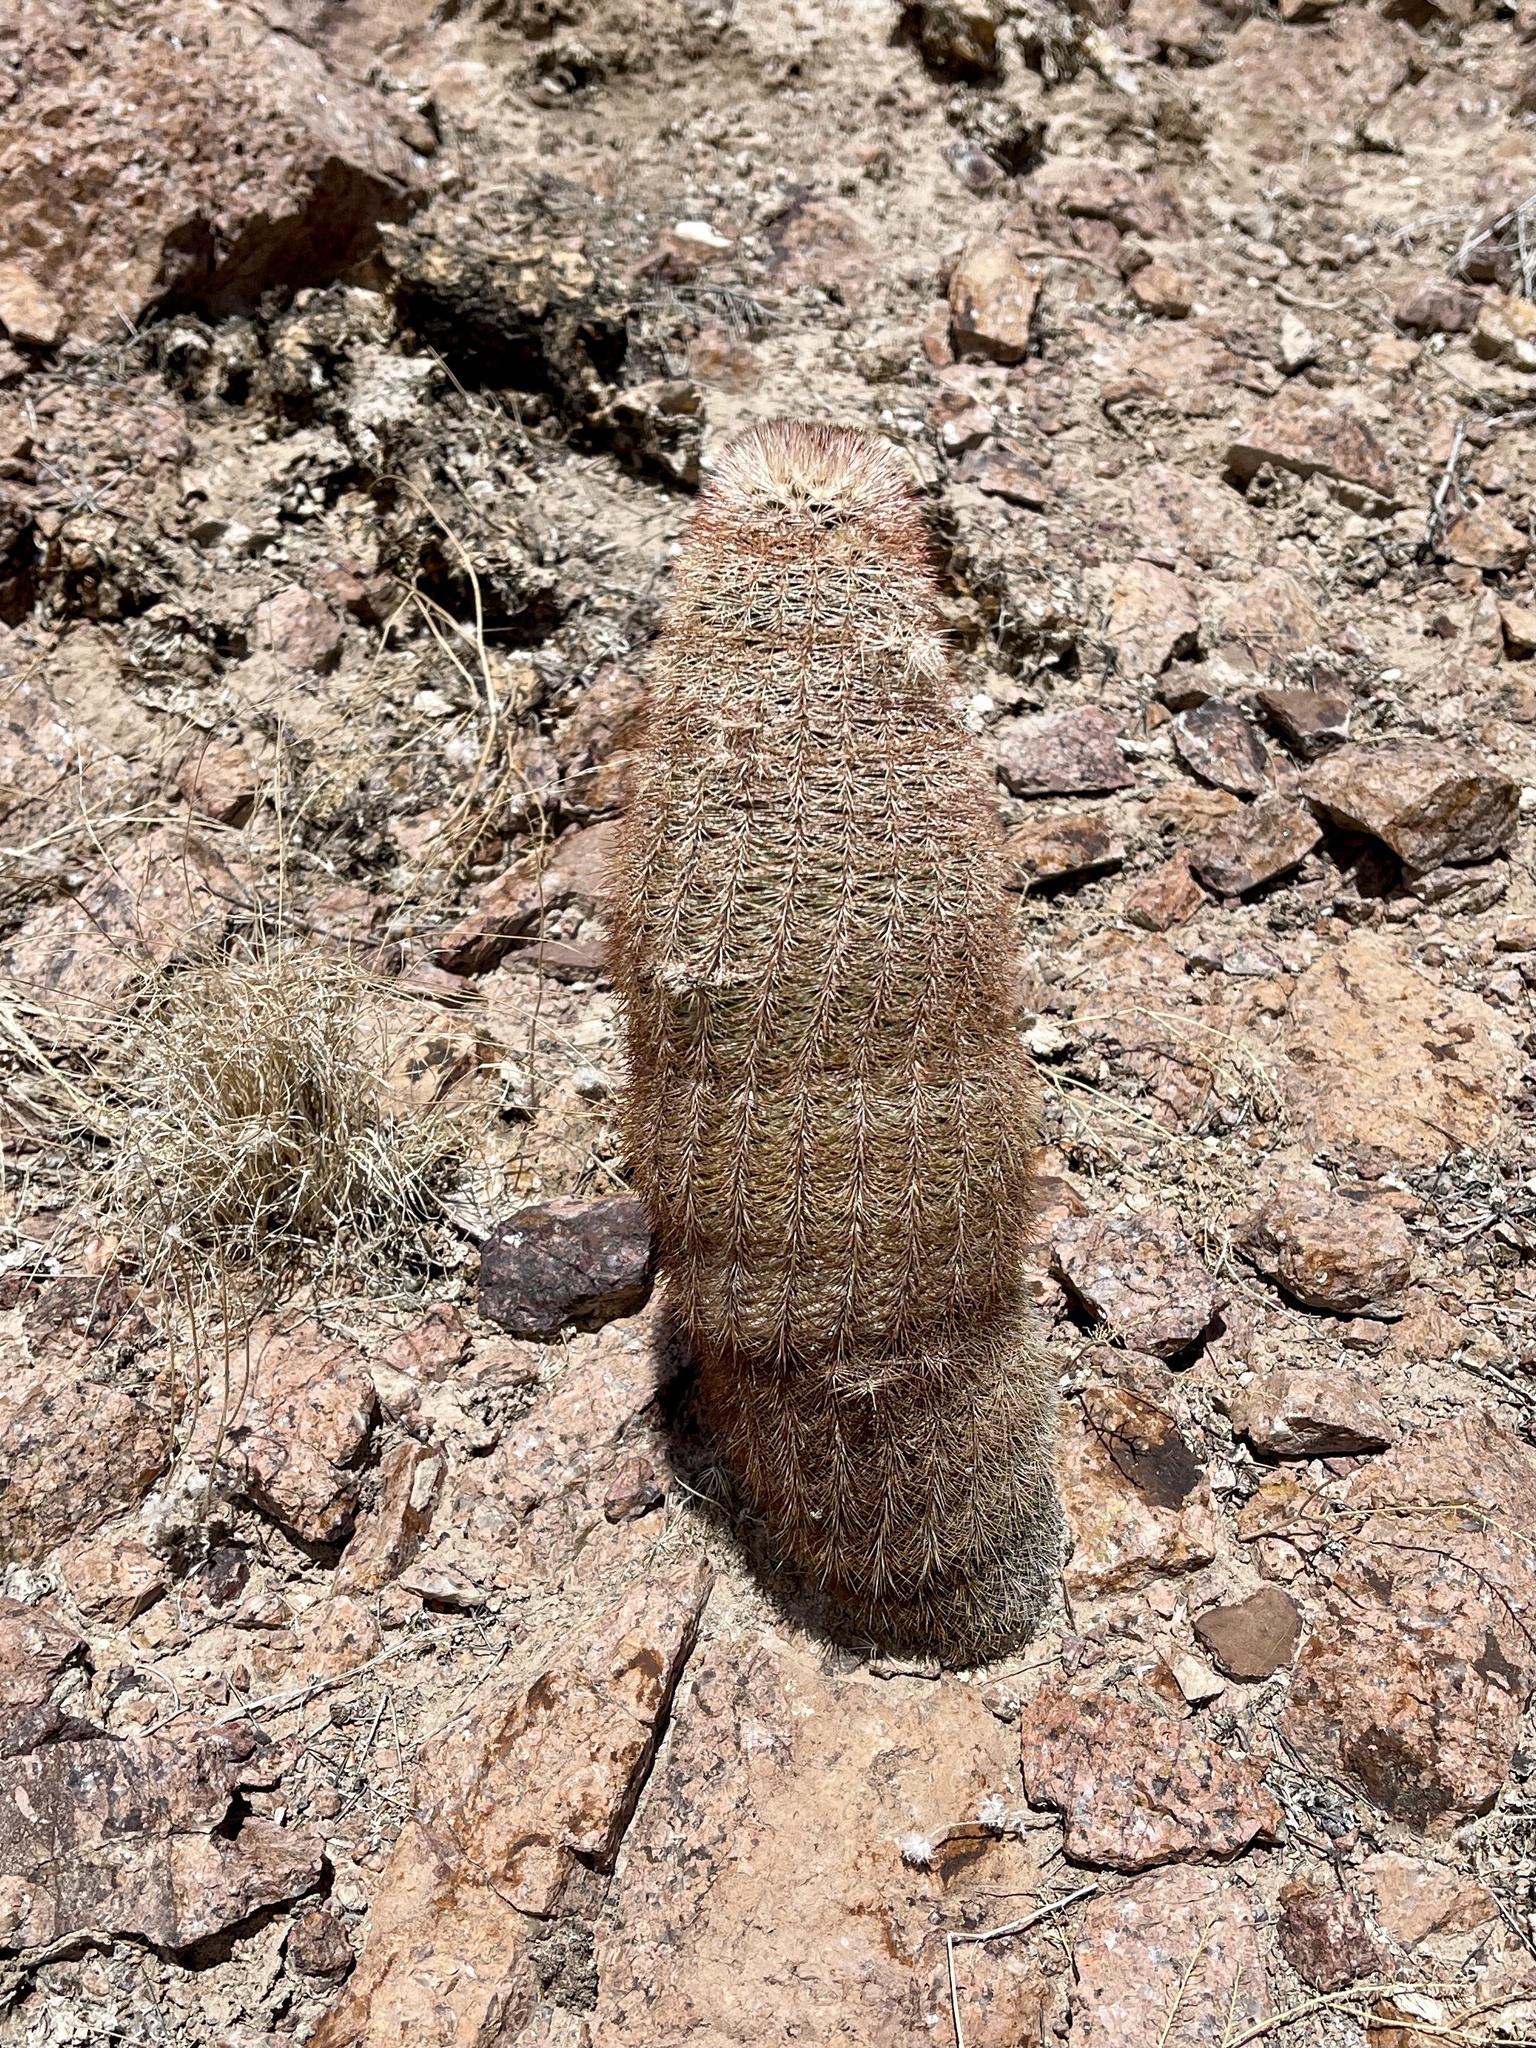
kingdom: Plantae
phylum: Tracheophyta
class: Magnoliopsida
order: Caryophyllales
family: Cactaceae
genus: Echinocereus
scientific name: Echinocereus dasyacanthus
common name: Spiny hedgehog cactus
